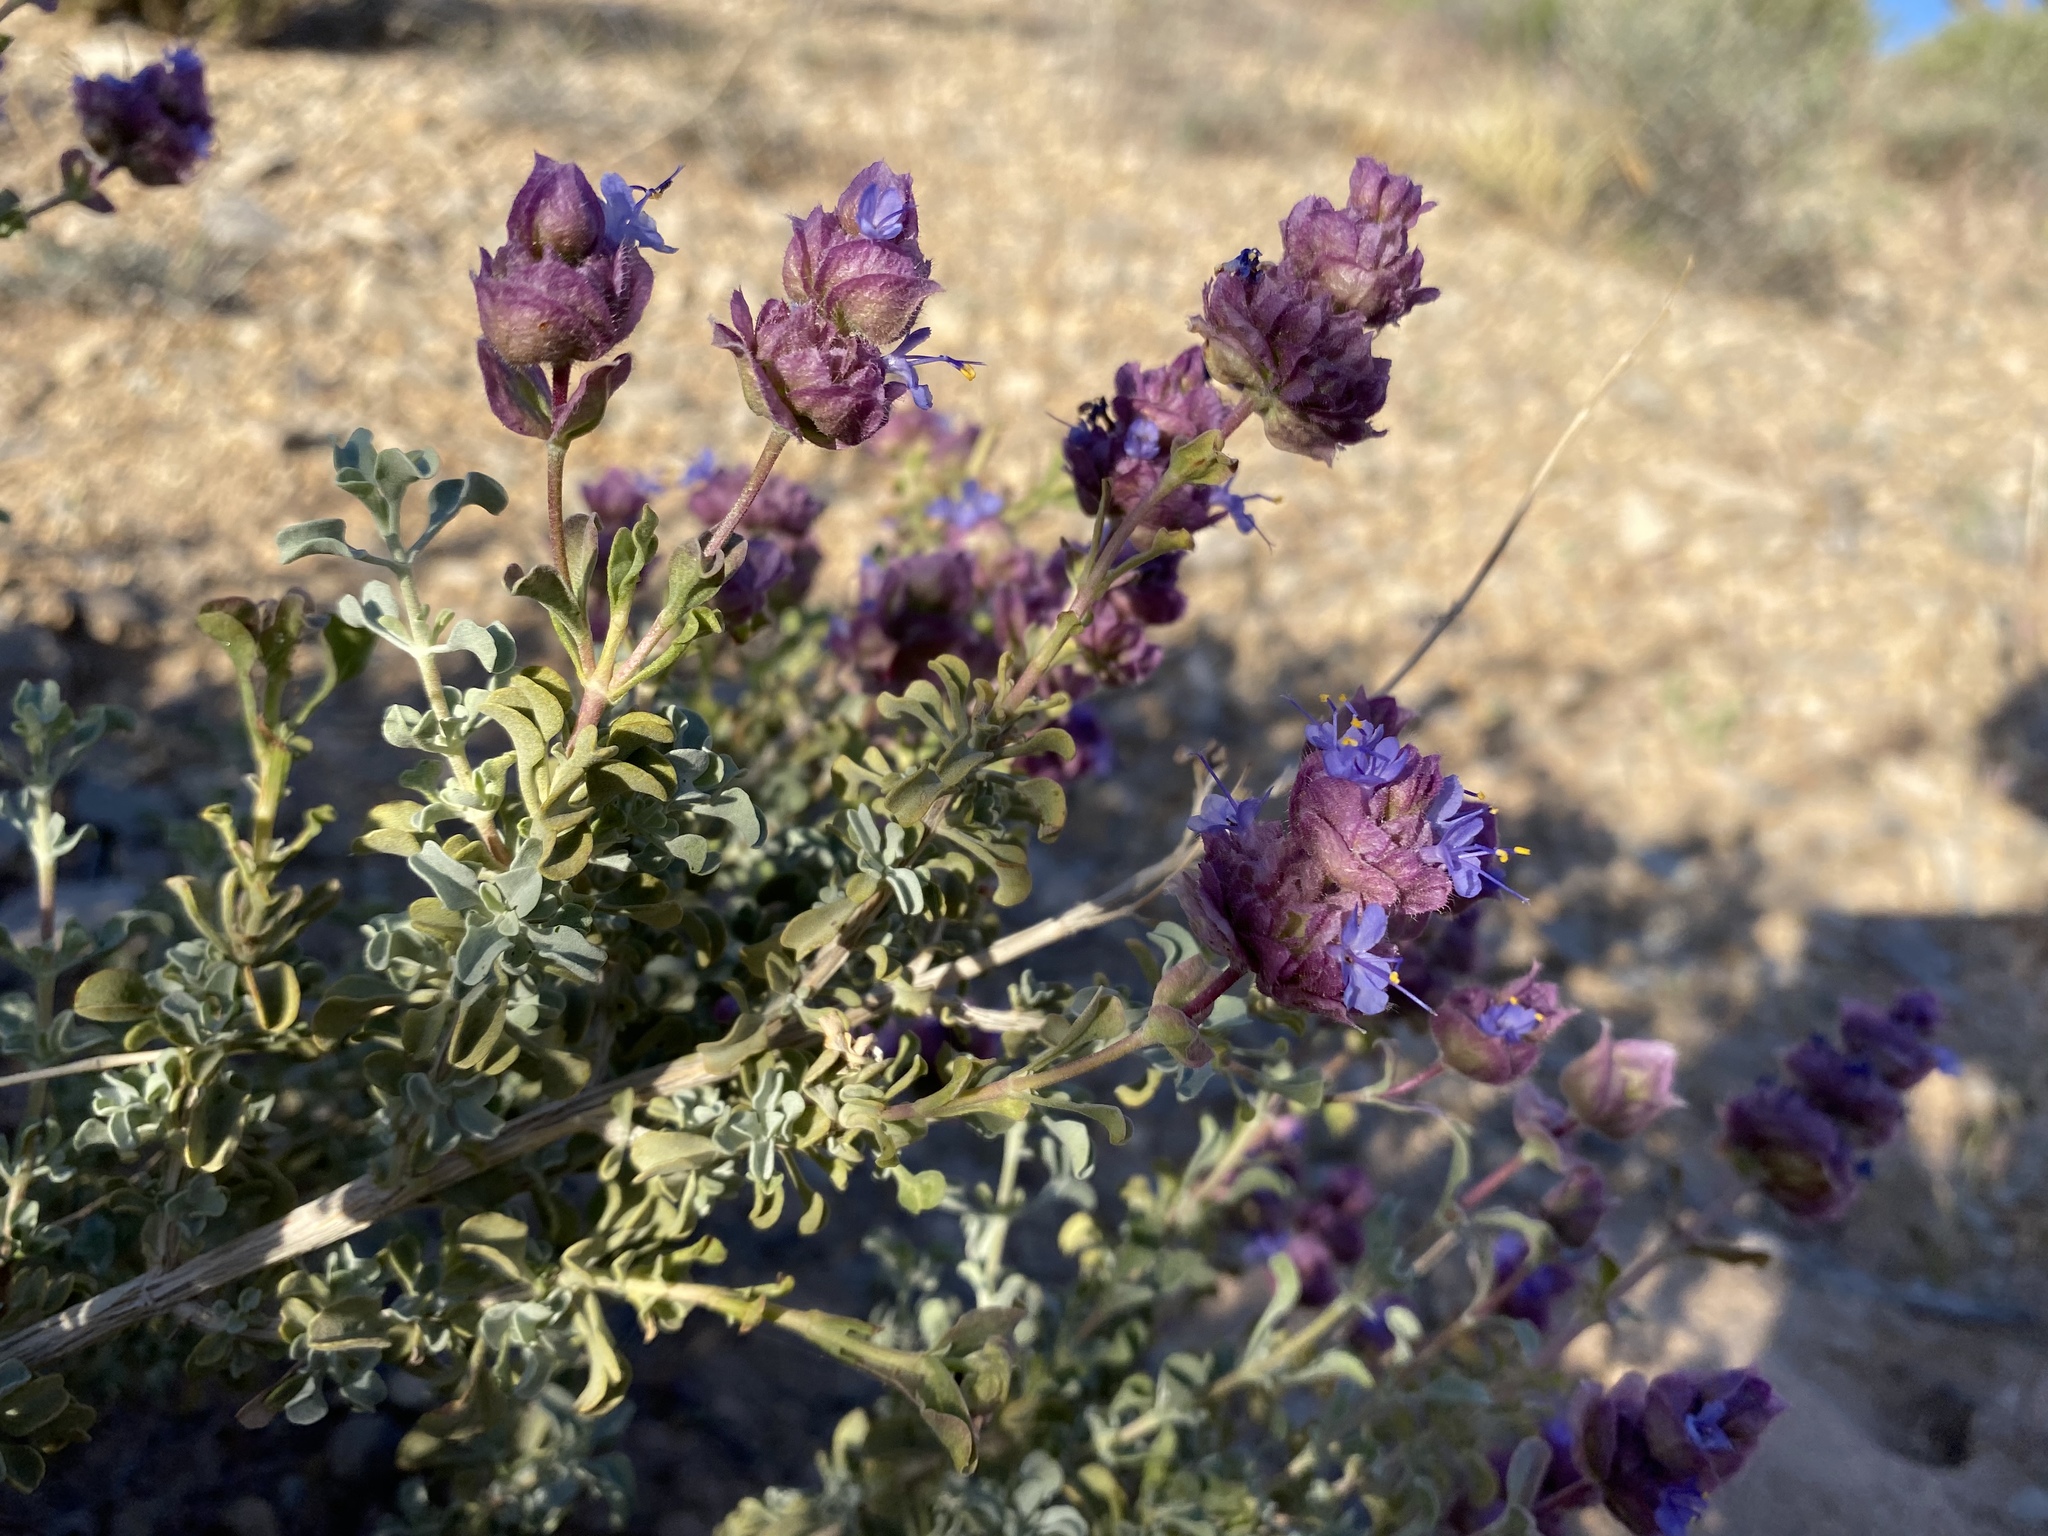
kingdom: Plantae
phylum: Tracheophyta
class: Magnoliopsida
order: Lamiales
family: Lamiaceae
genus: Salvia
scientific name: Salvia dorrii
